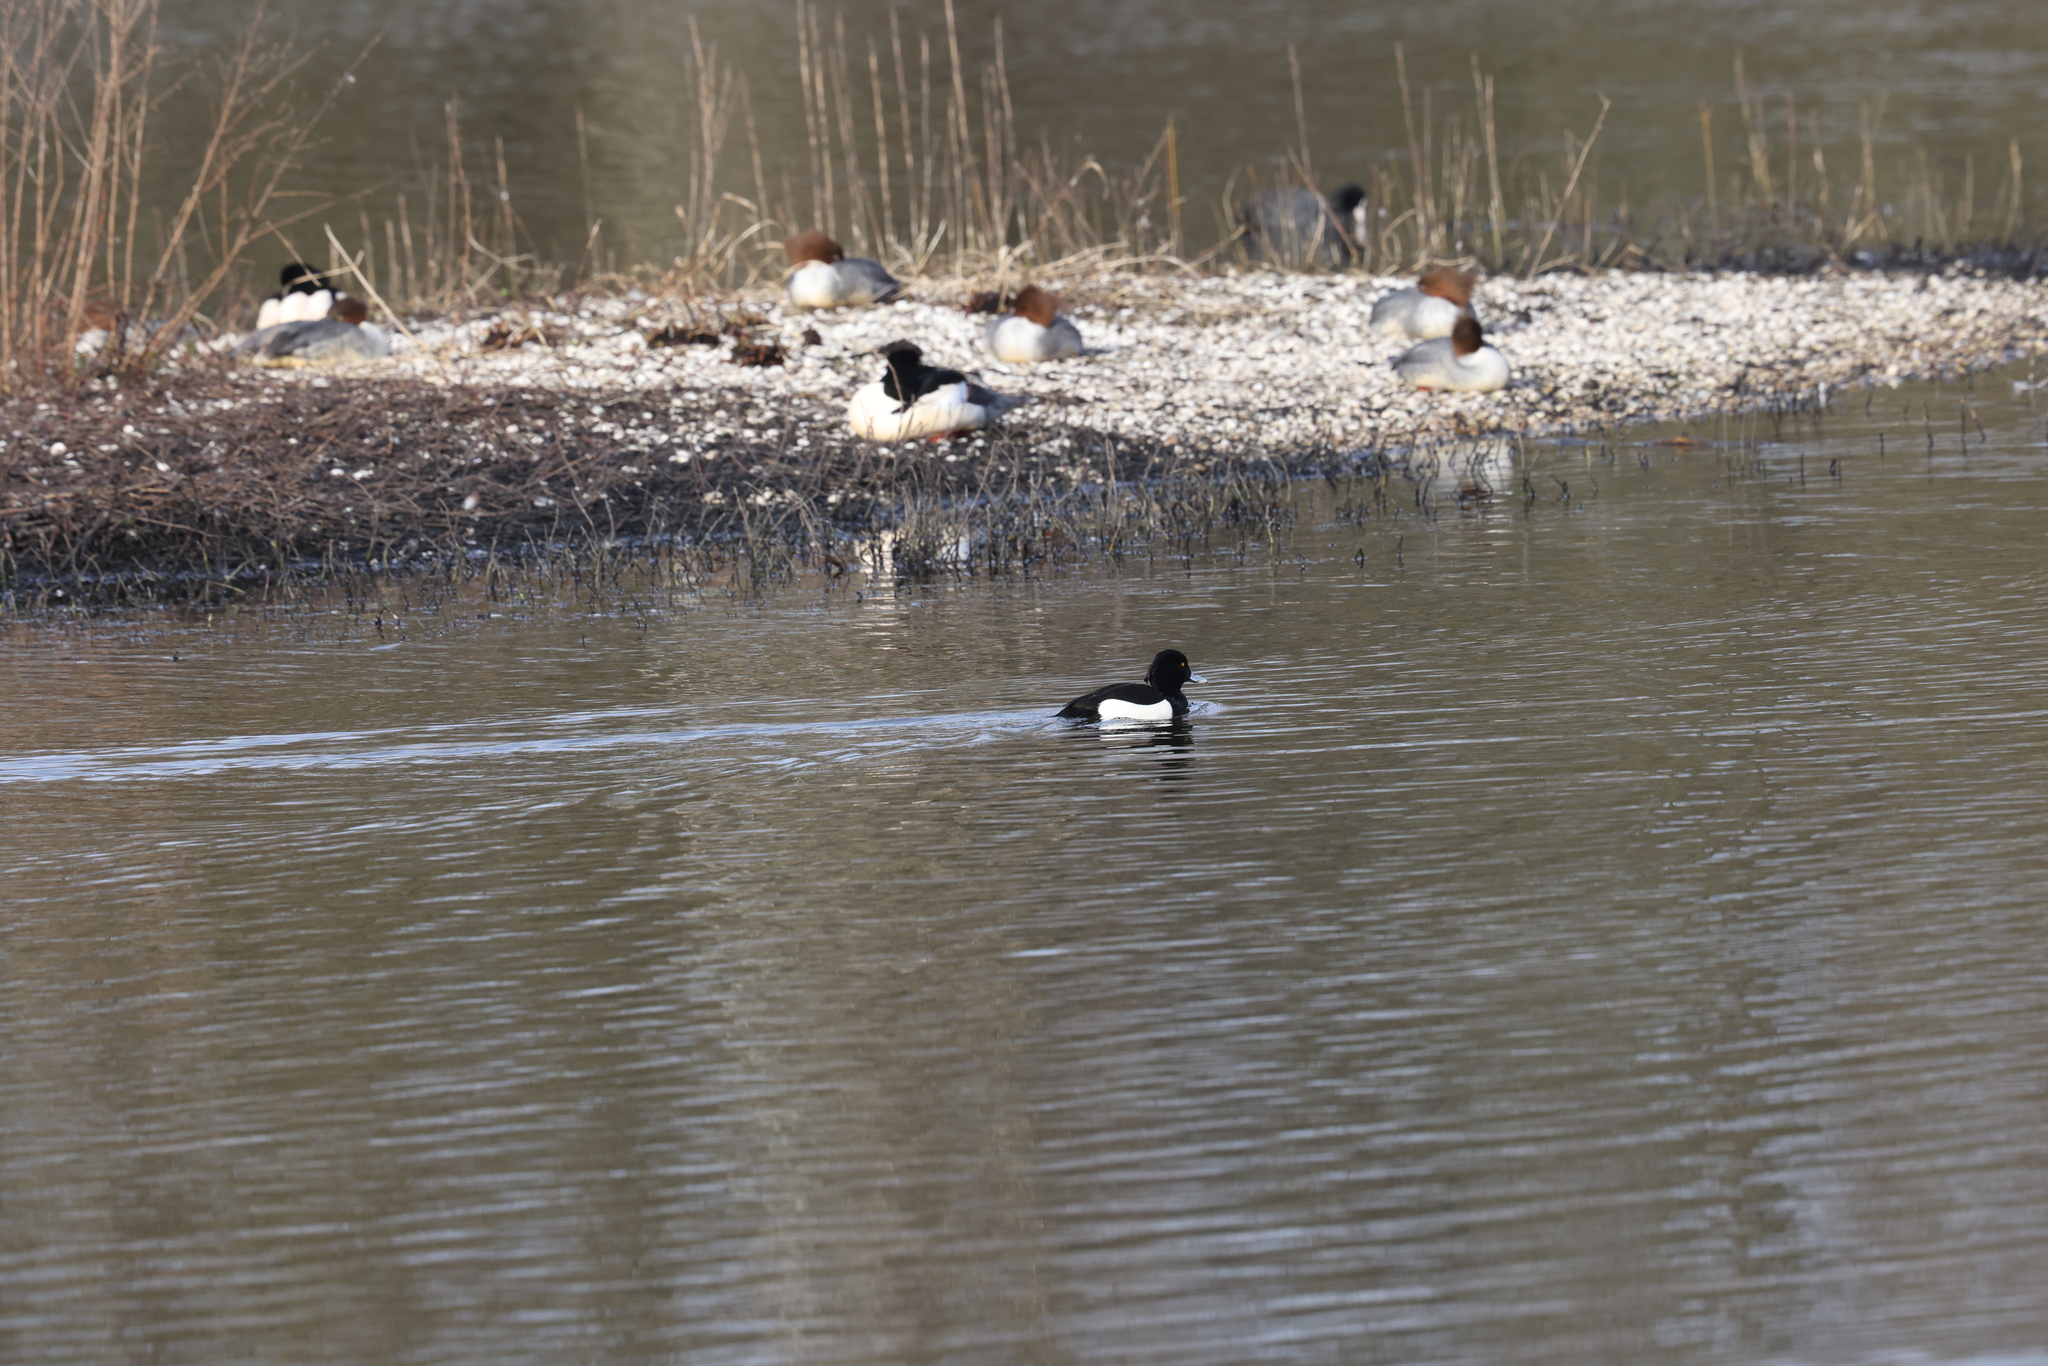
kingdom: Animalia
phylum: Chordata
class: Aves
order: Anseriformes
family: Anatidae
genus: Aythya
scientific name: Aythya fuligula
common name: Tufted duck
